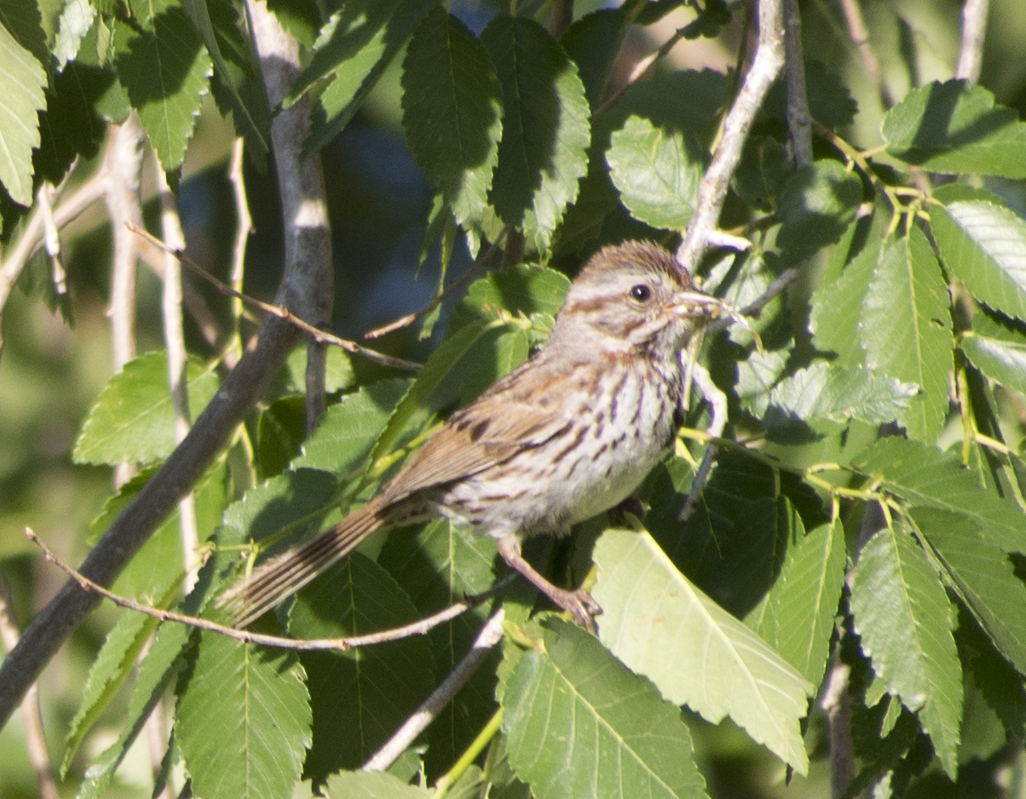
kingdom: Animalia
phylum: Chordata
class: Aves
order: Passeriformes
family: Passerellidae
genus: Melospiza
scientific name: Melospiza melodia
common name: Song sparrow
